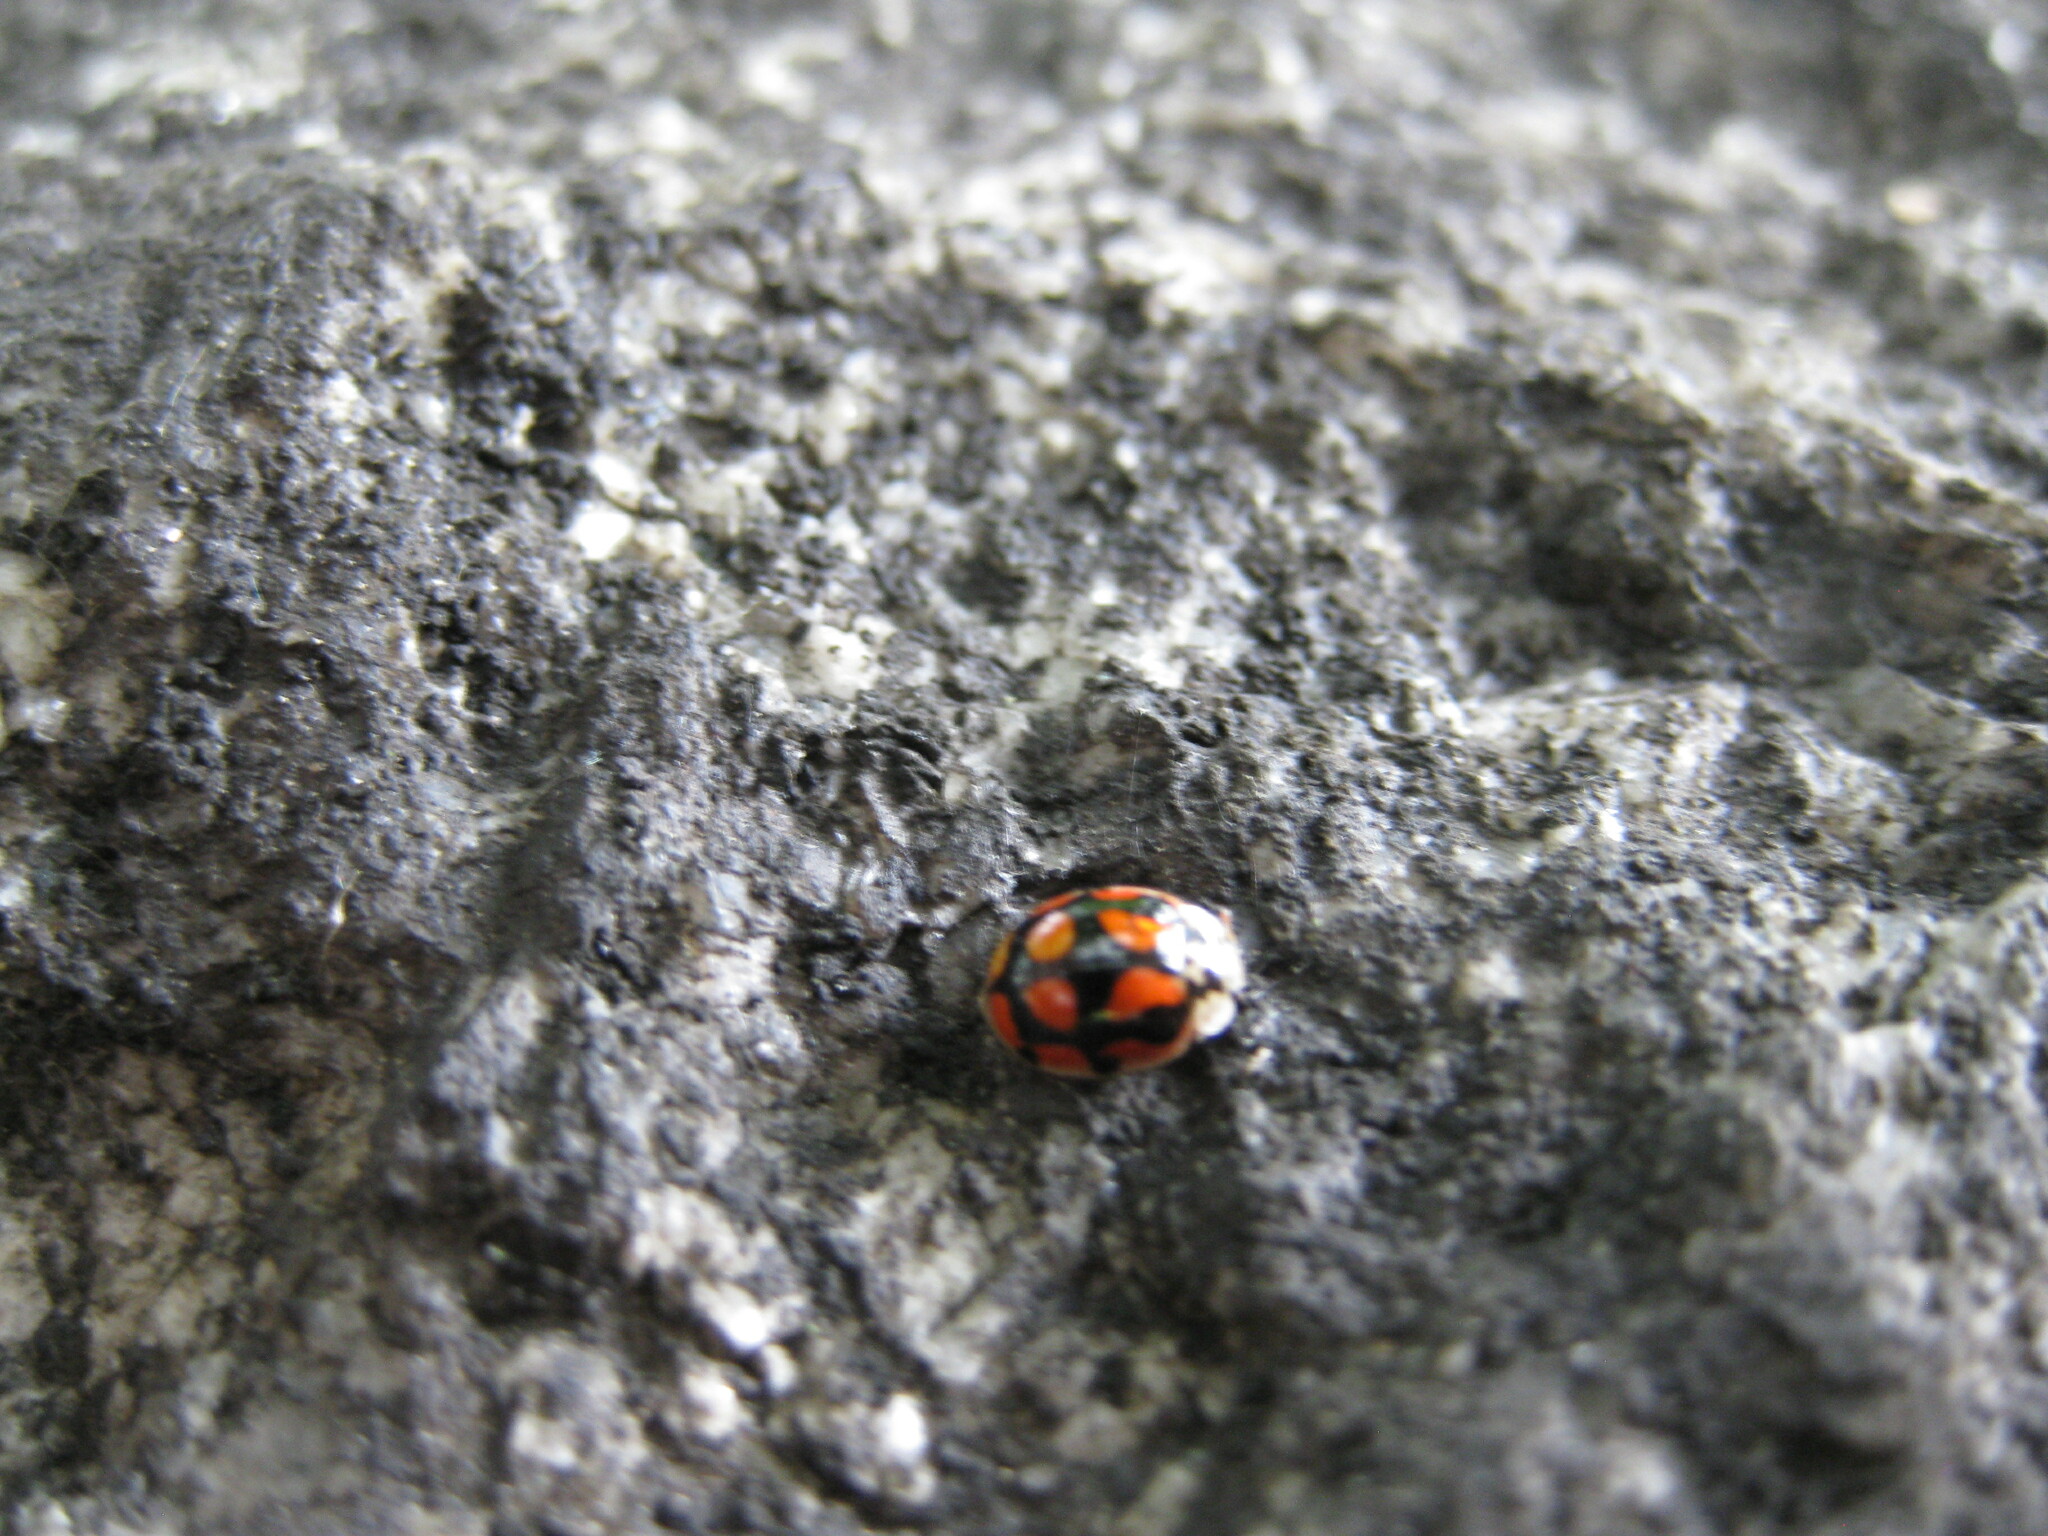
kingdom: Animalia
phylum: Arthropoda
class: Insecta
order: Coleoptera
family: Coccinellidae
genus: Adalia
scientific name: Adalia decempunctata
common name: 10-spot ladybird
